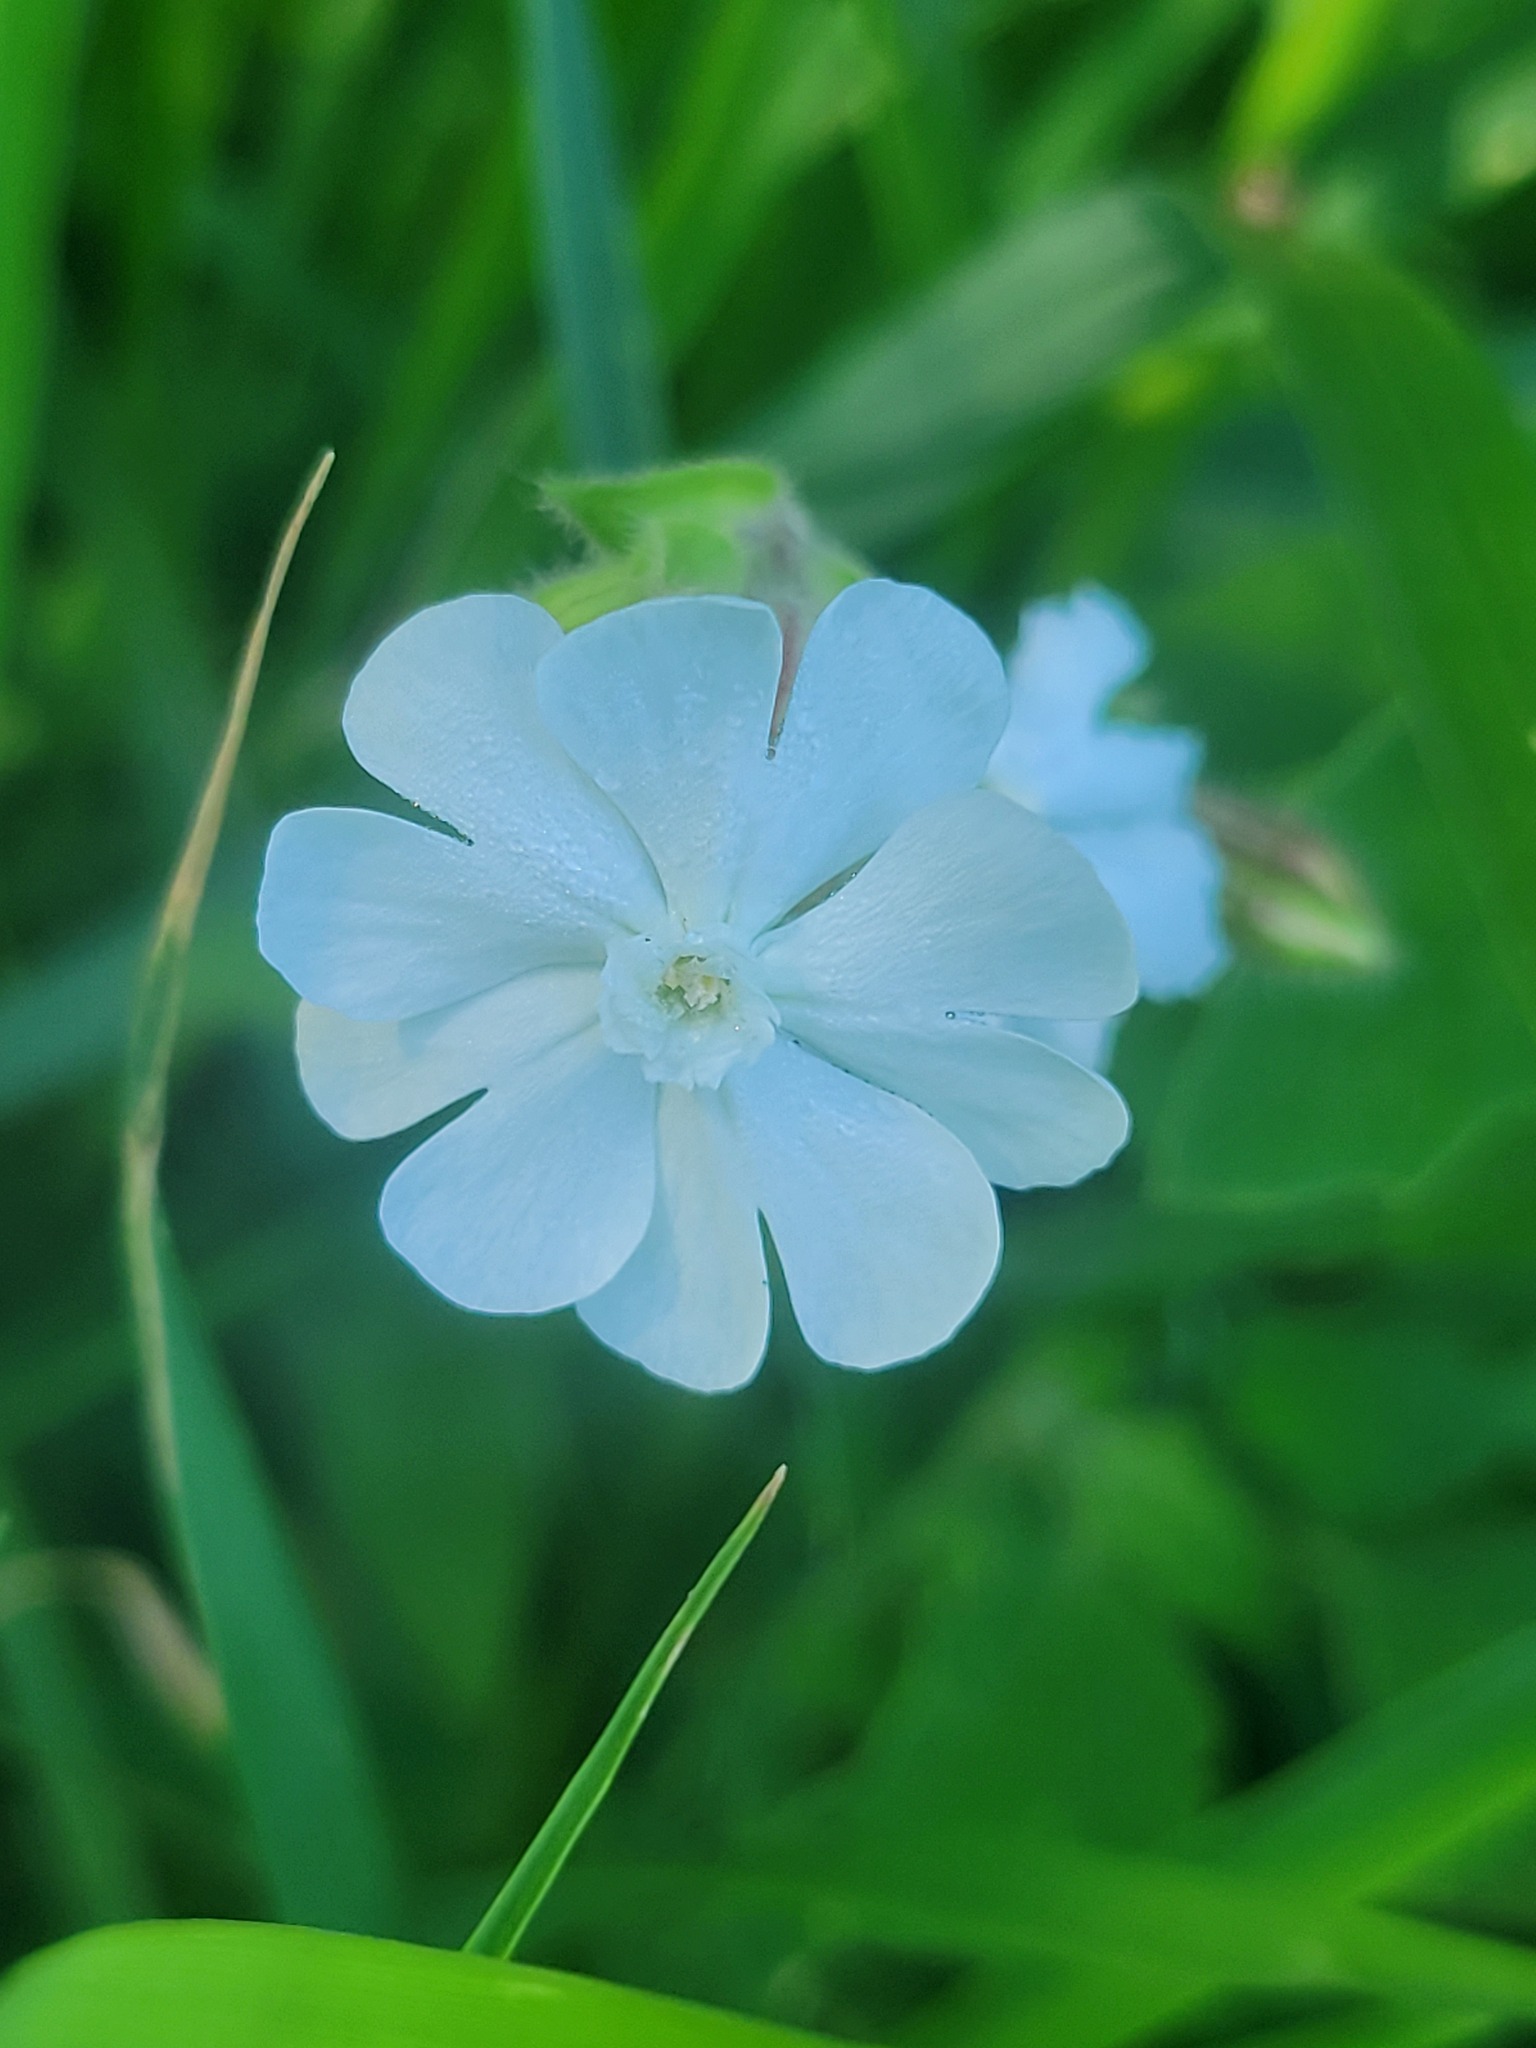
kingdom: Plantae
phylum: Tracheophyta
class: Magnoliopsida
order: Caryophyllales
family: Caryophyllaceae
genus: Silene
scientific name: Silene latifolia
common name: White campion
